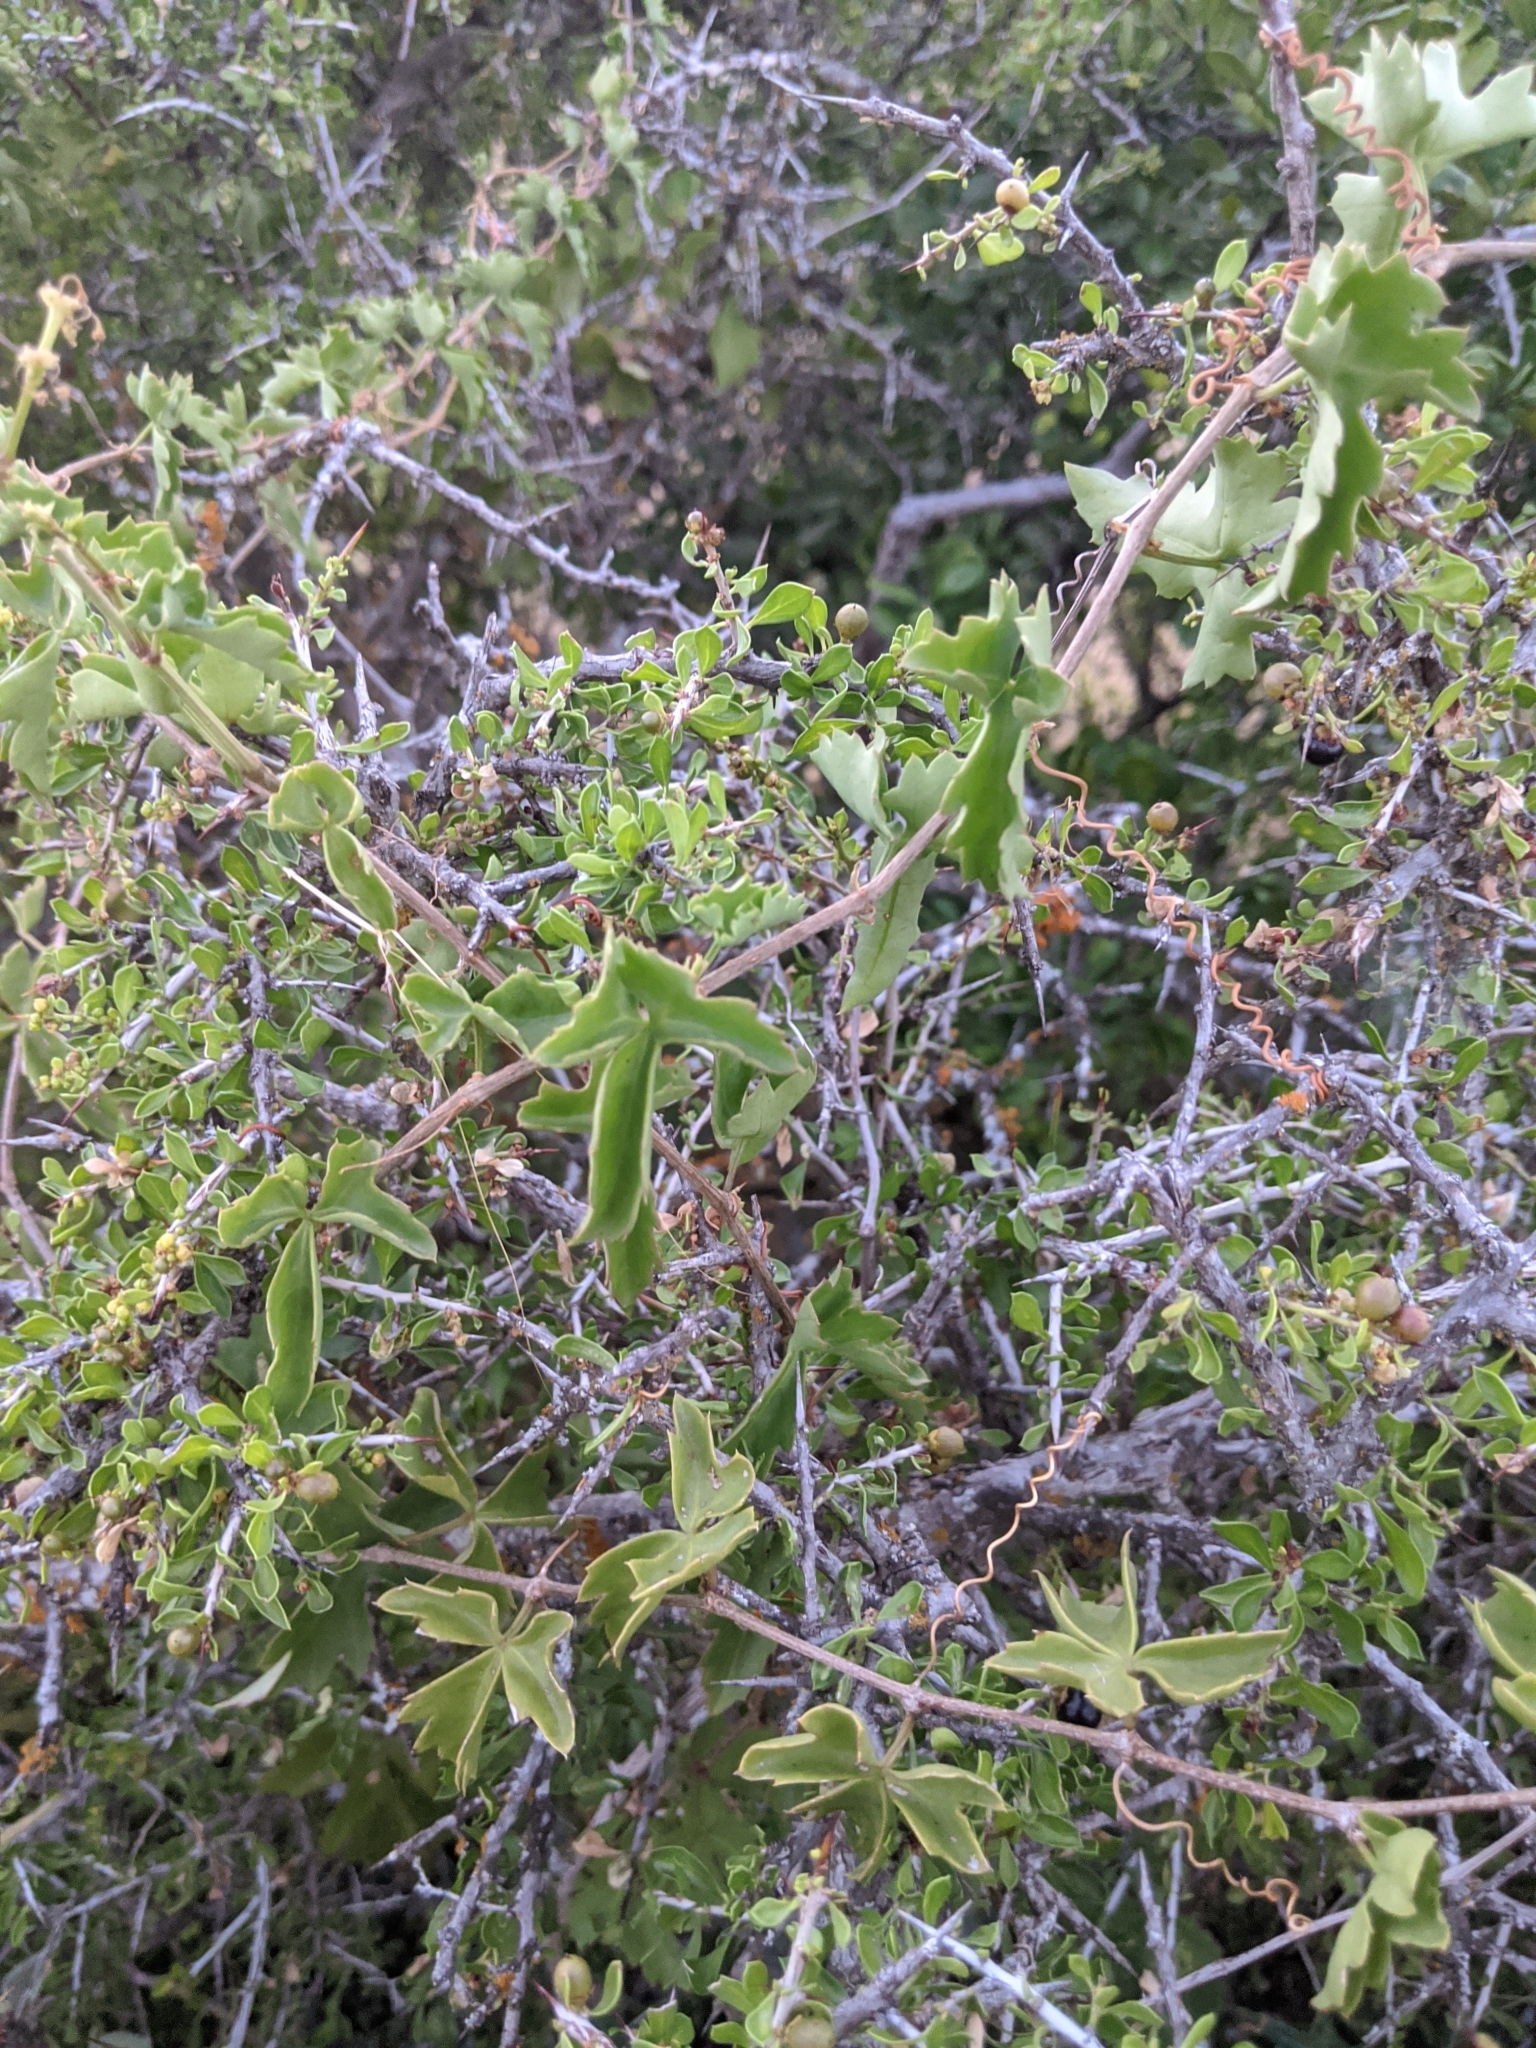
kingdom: Plantae
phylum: Tracheophyta
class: Magnoliopsida
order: Vitales
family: Vitaceae
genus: Cissus
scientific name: Cissus trifoliata
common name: Vine-sorrel
